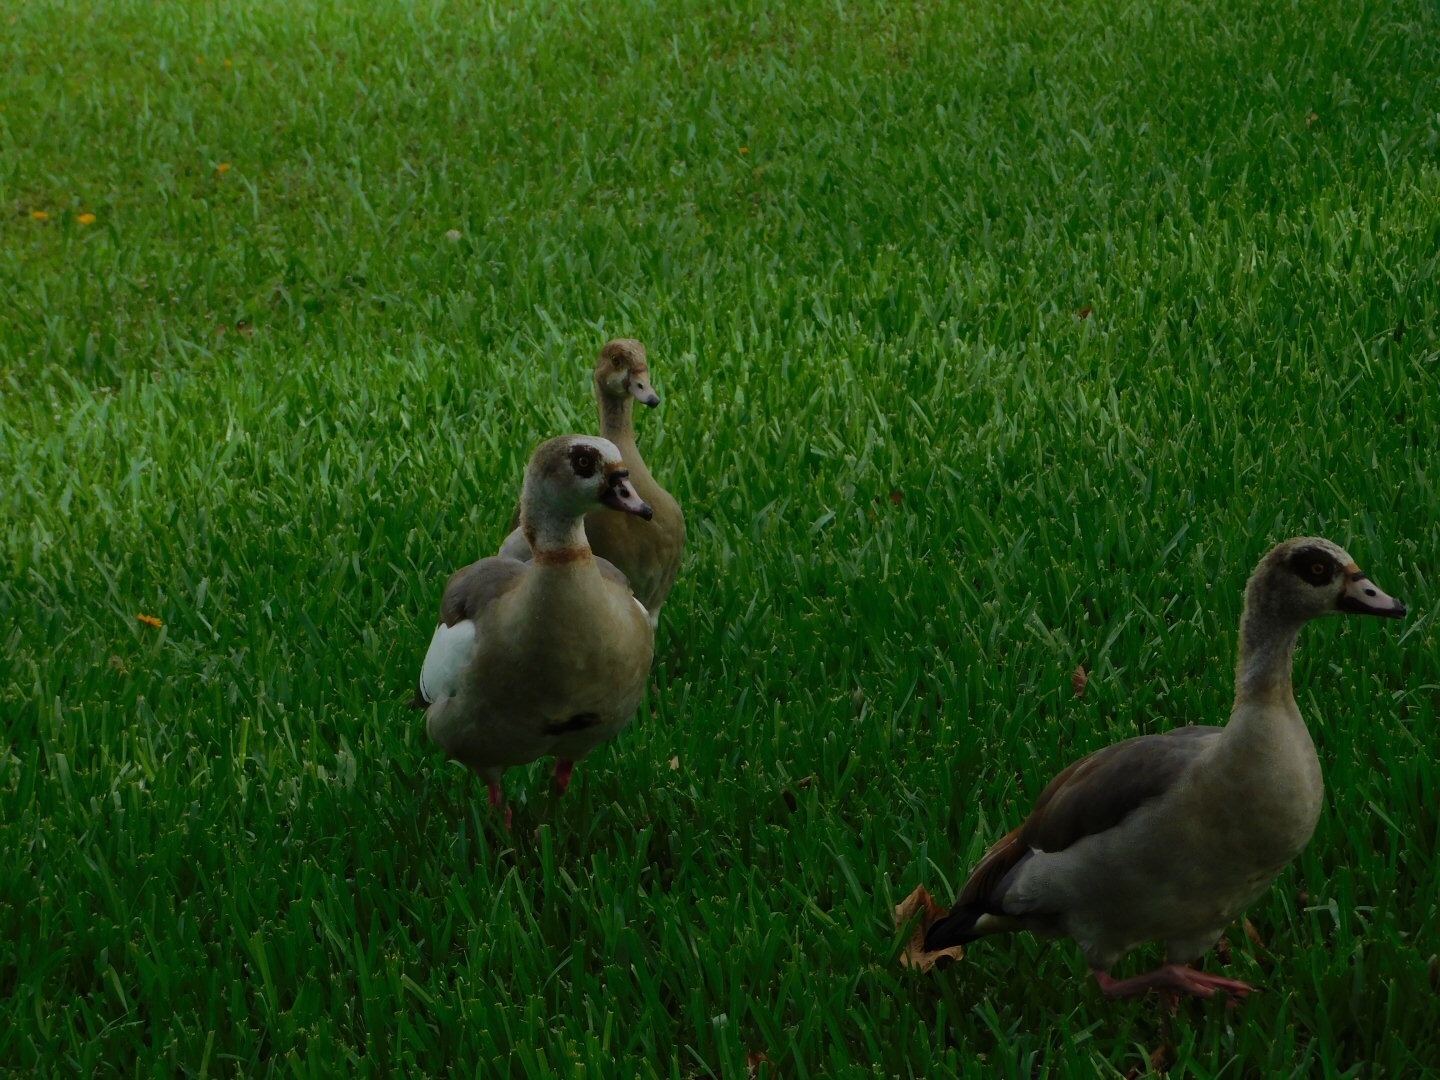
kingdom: Animalia
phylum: Chordata
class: Aves
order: Anseriformes
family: Anatidae
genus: Alopochen
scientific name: Alopochen aegyptiaca
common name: Egyptian goose
